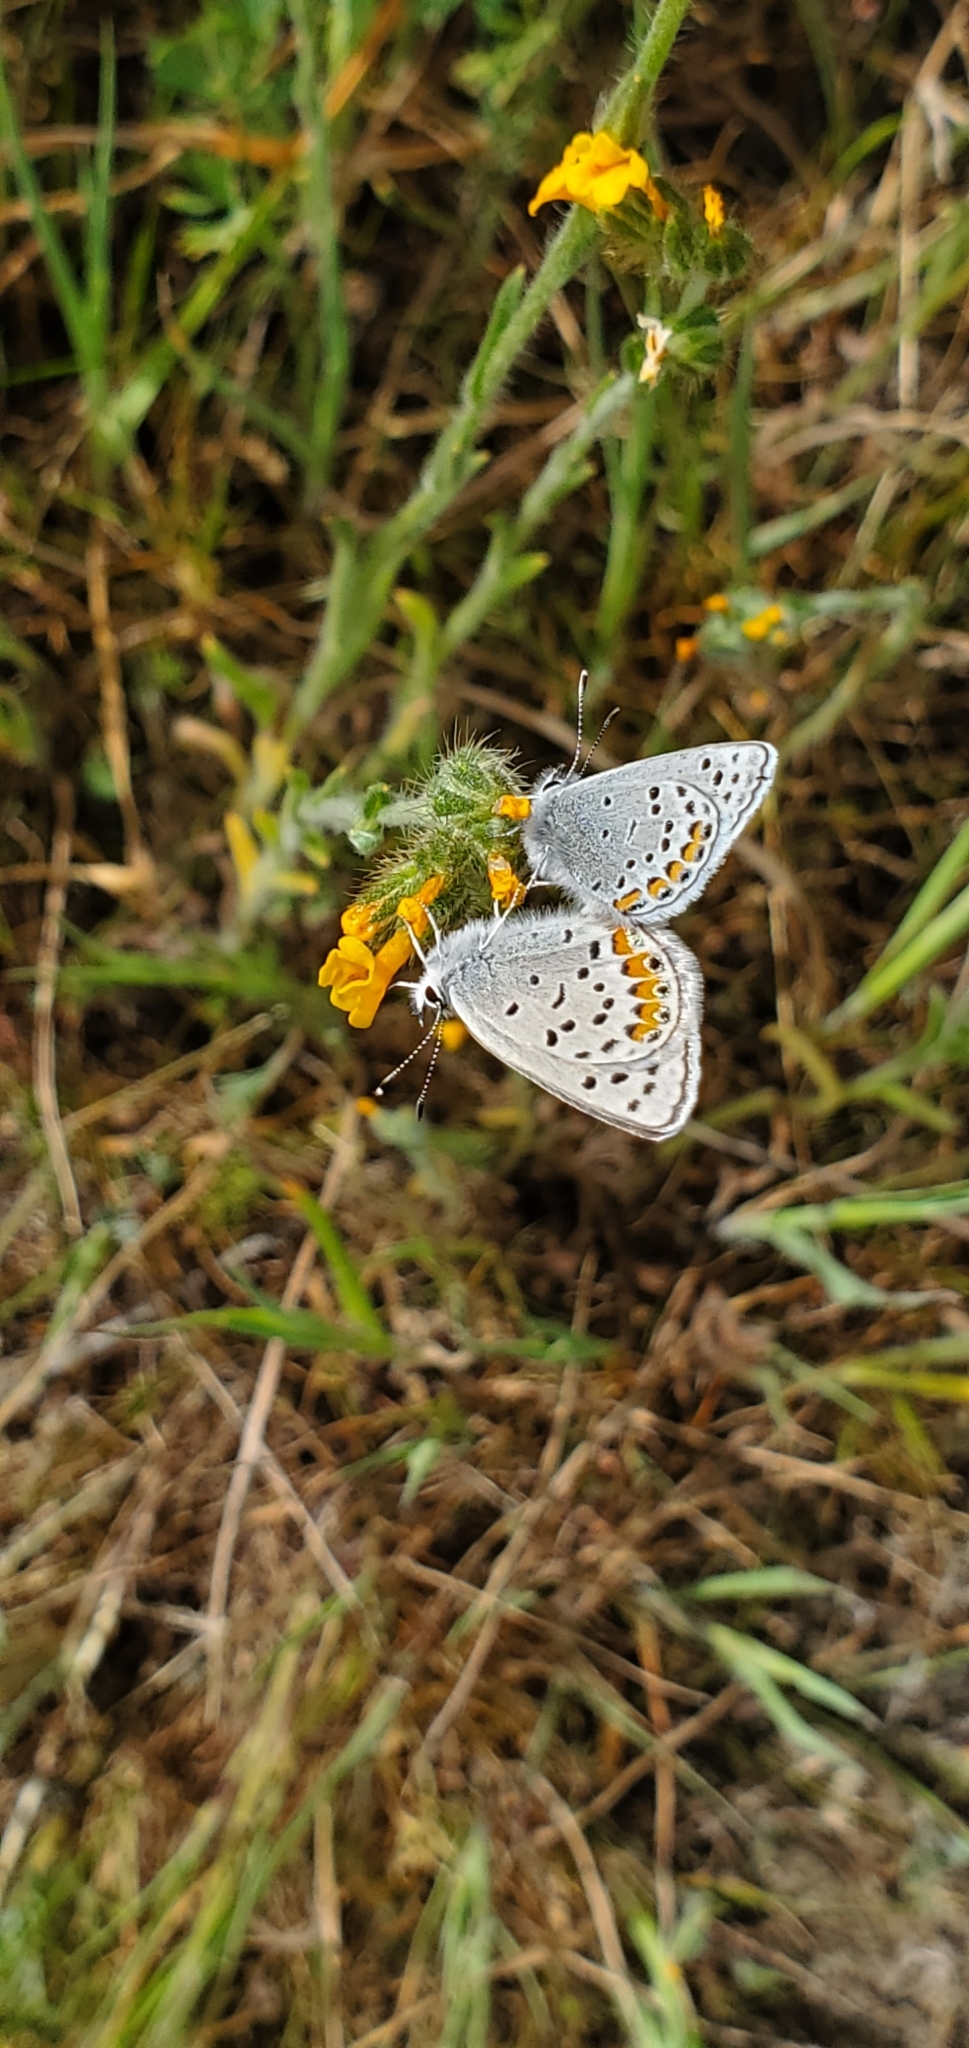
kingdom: Animalia
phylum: Arthropoda
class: Insecta
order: Lepidoptera
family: Lycaenidae
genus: Icaricia
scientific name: Icaricia acmon
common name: Acmon blue
